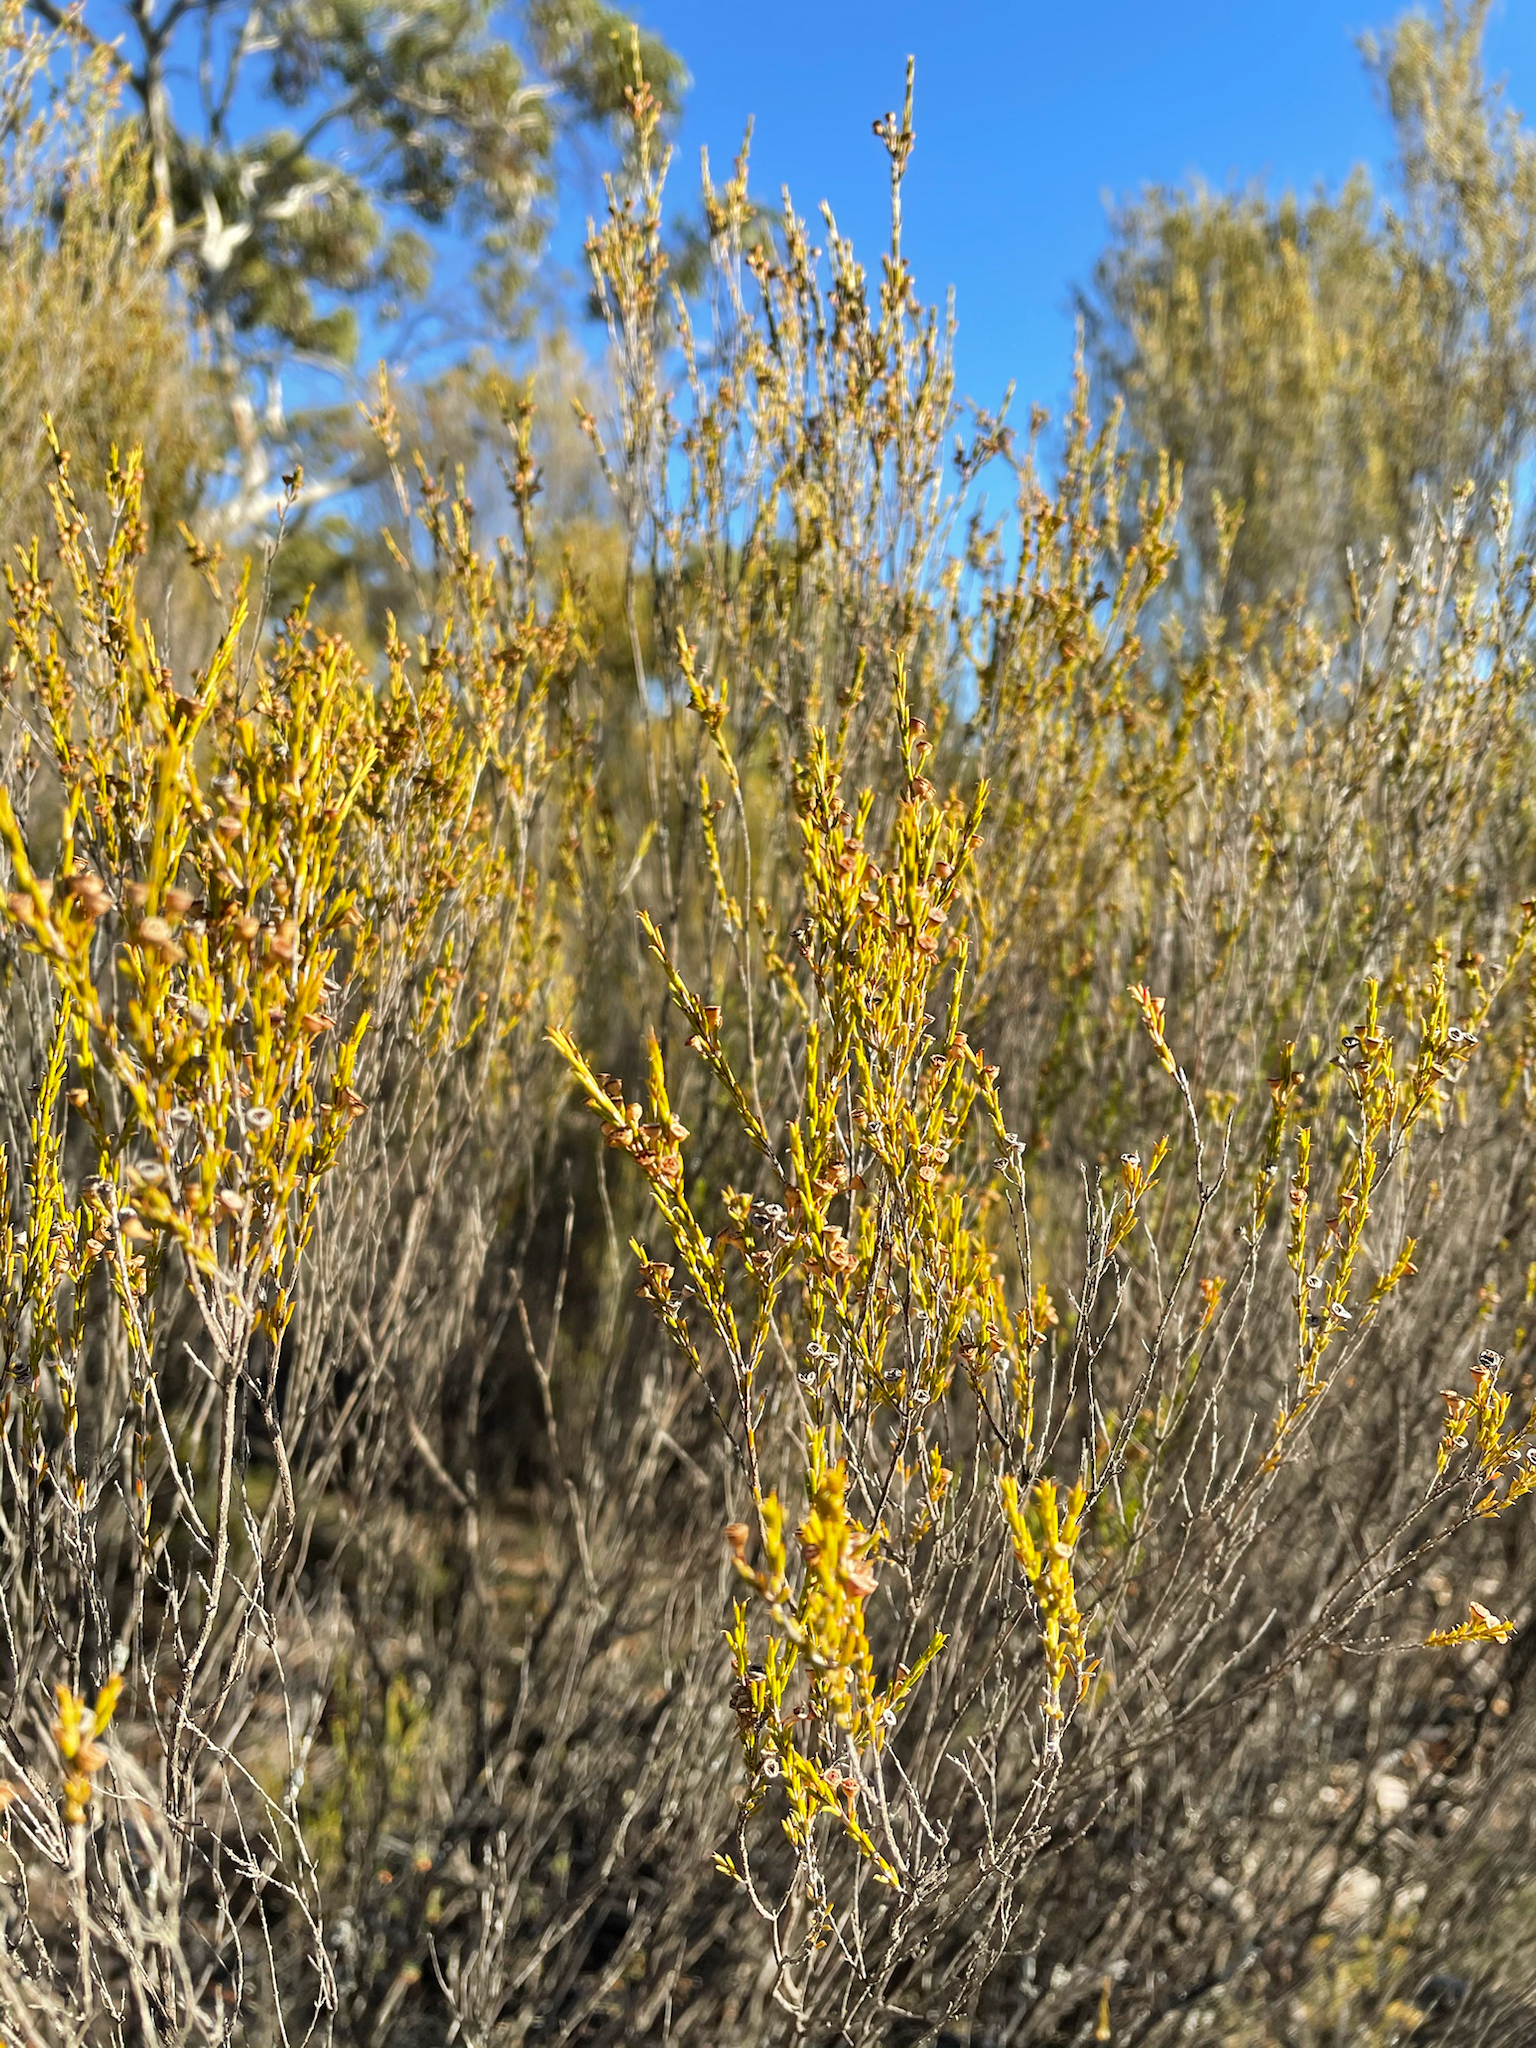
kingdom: Plantae
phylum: Tracheophyta
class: Magnoliopsida
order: Myrtales
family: Myrtaceae
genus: Hysterobaeckea
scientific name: Hysterobaeckea behrii
